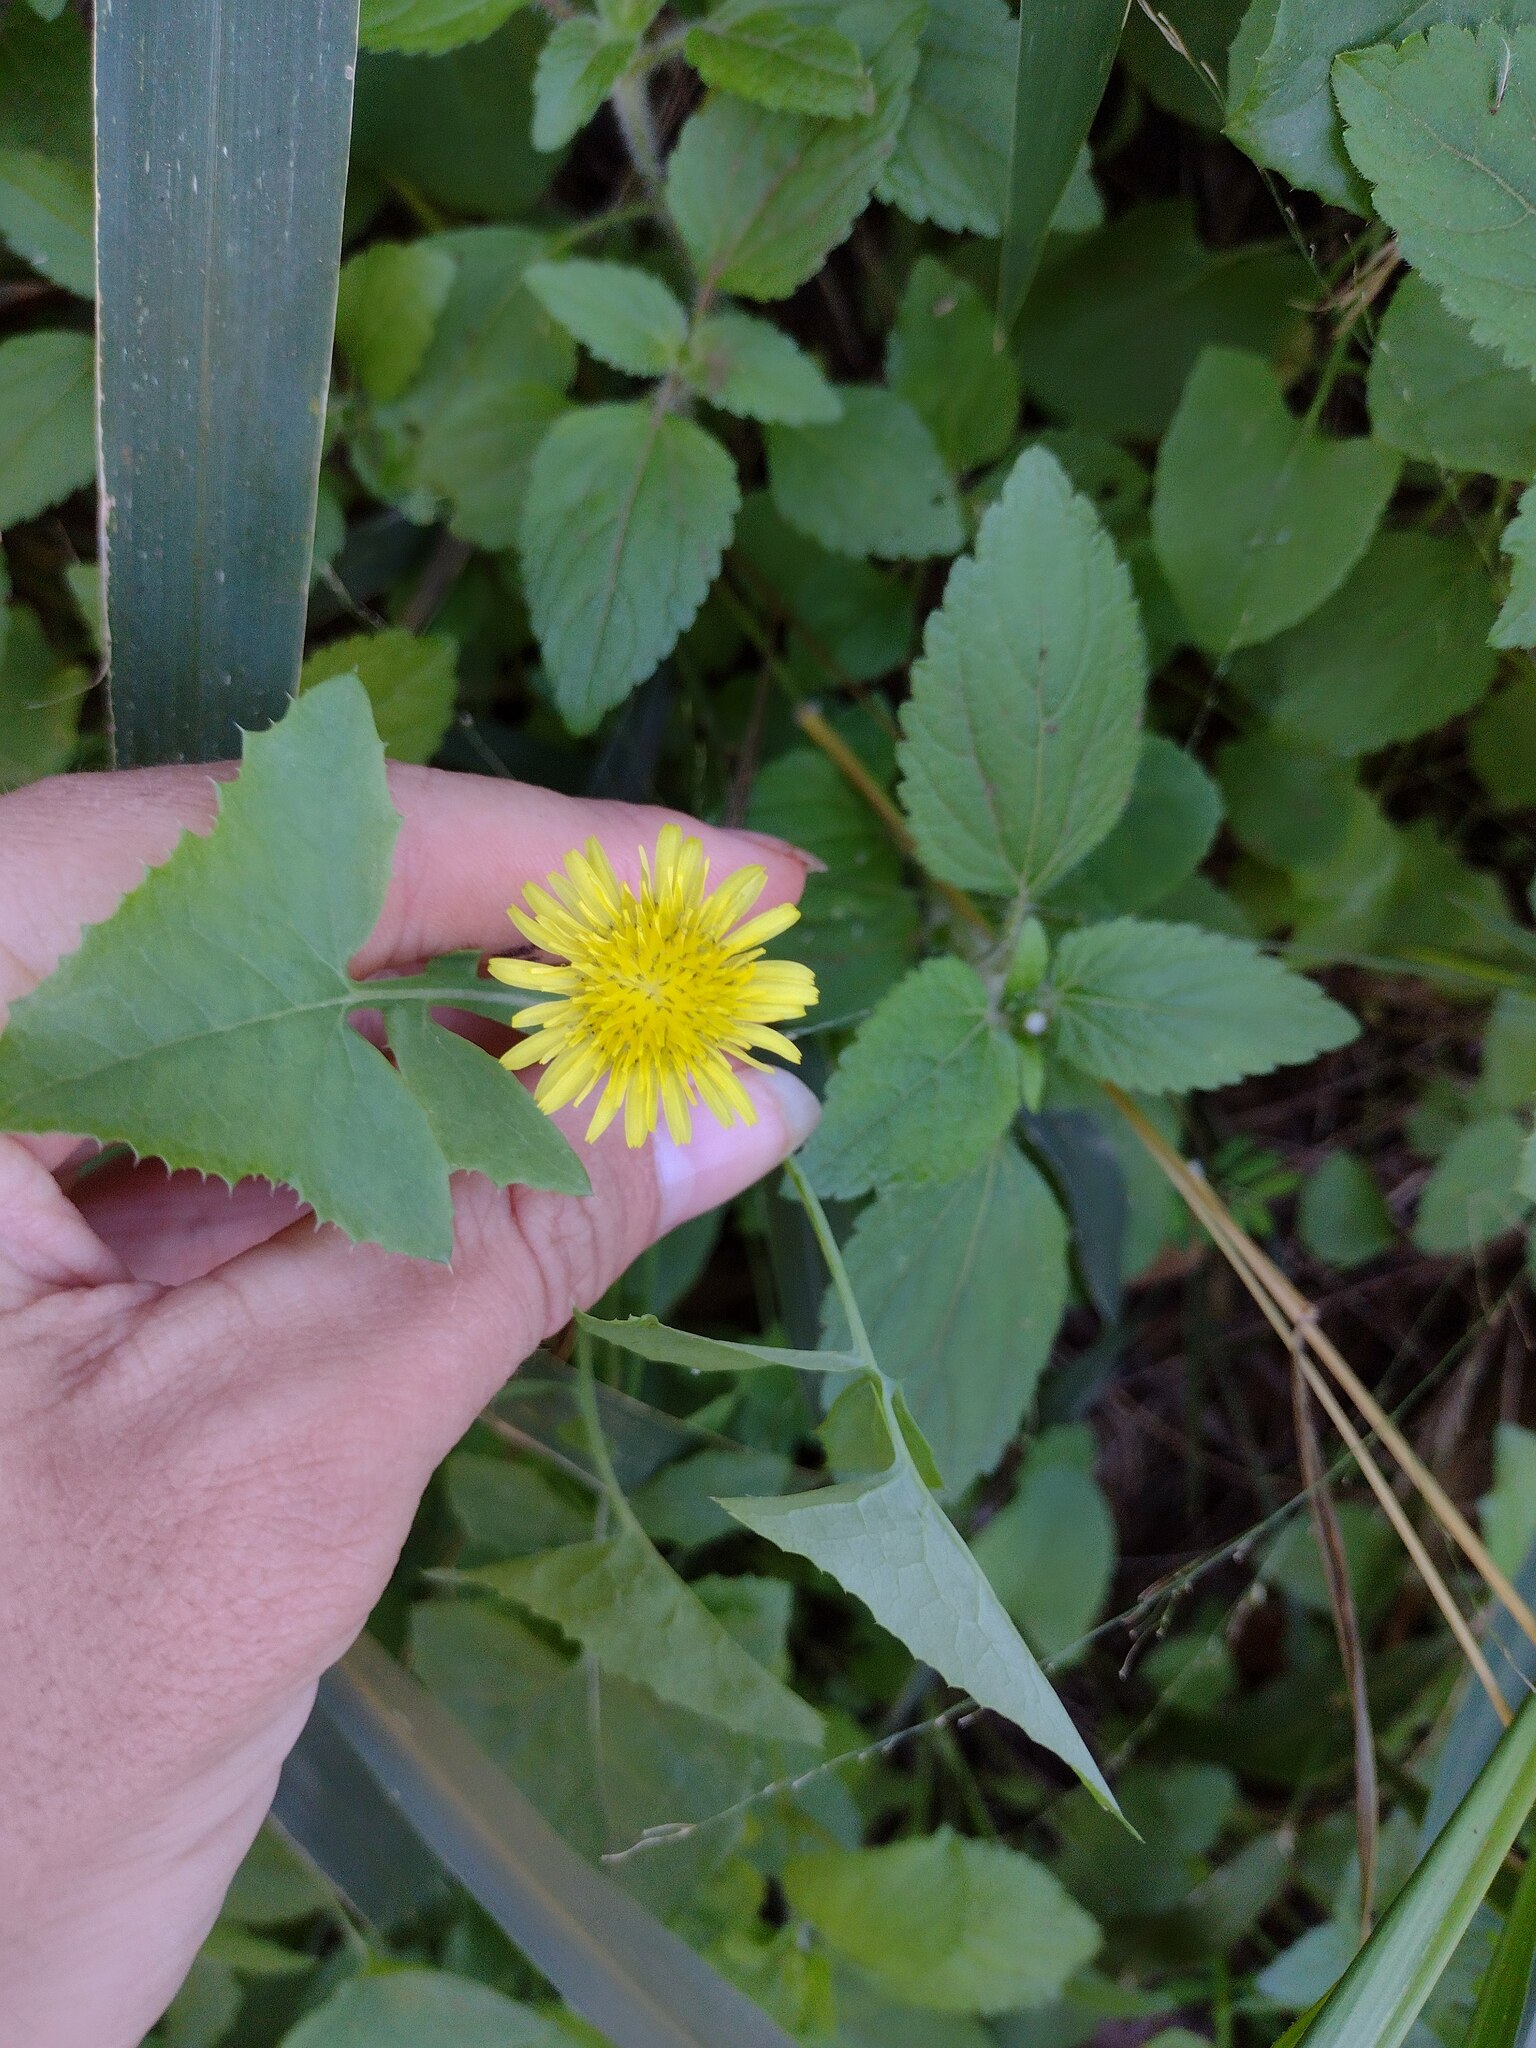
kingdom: Plantae
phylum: Tracheophyta
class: Magnoliopsida
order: Asterales
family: Asteraceae
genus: Sonchus
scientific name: Sonchus oleraceus
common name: Common sowthistle
